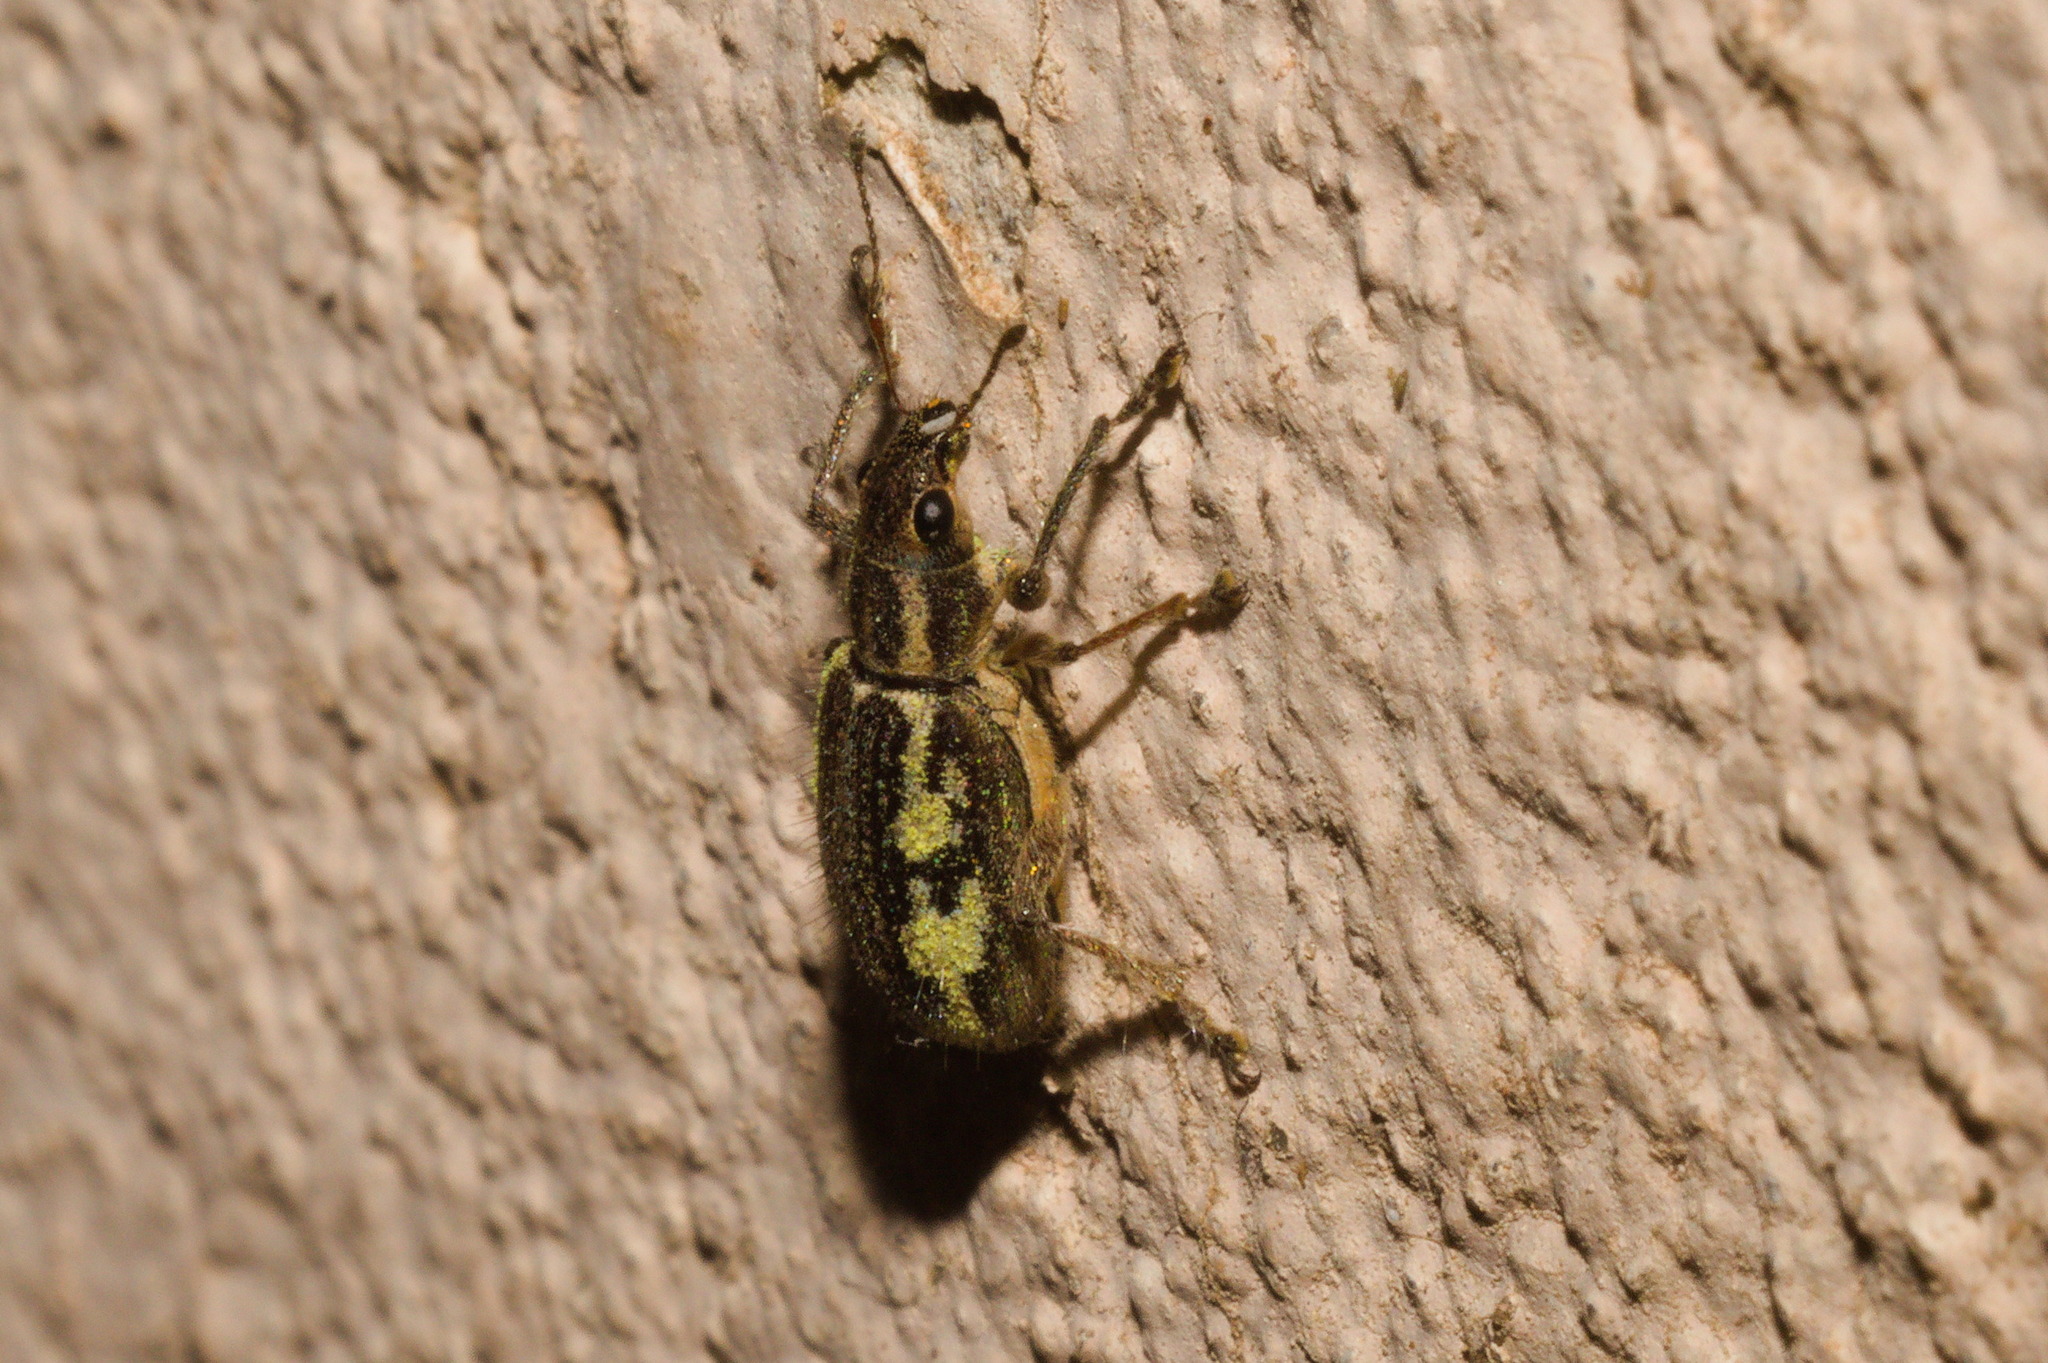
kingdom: Animalia
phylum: Arthropoda
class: Insecta
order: Coleoptera
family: Curculionidae
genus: Lanterius
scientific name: Lanterius micaceus
